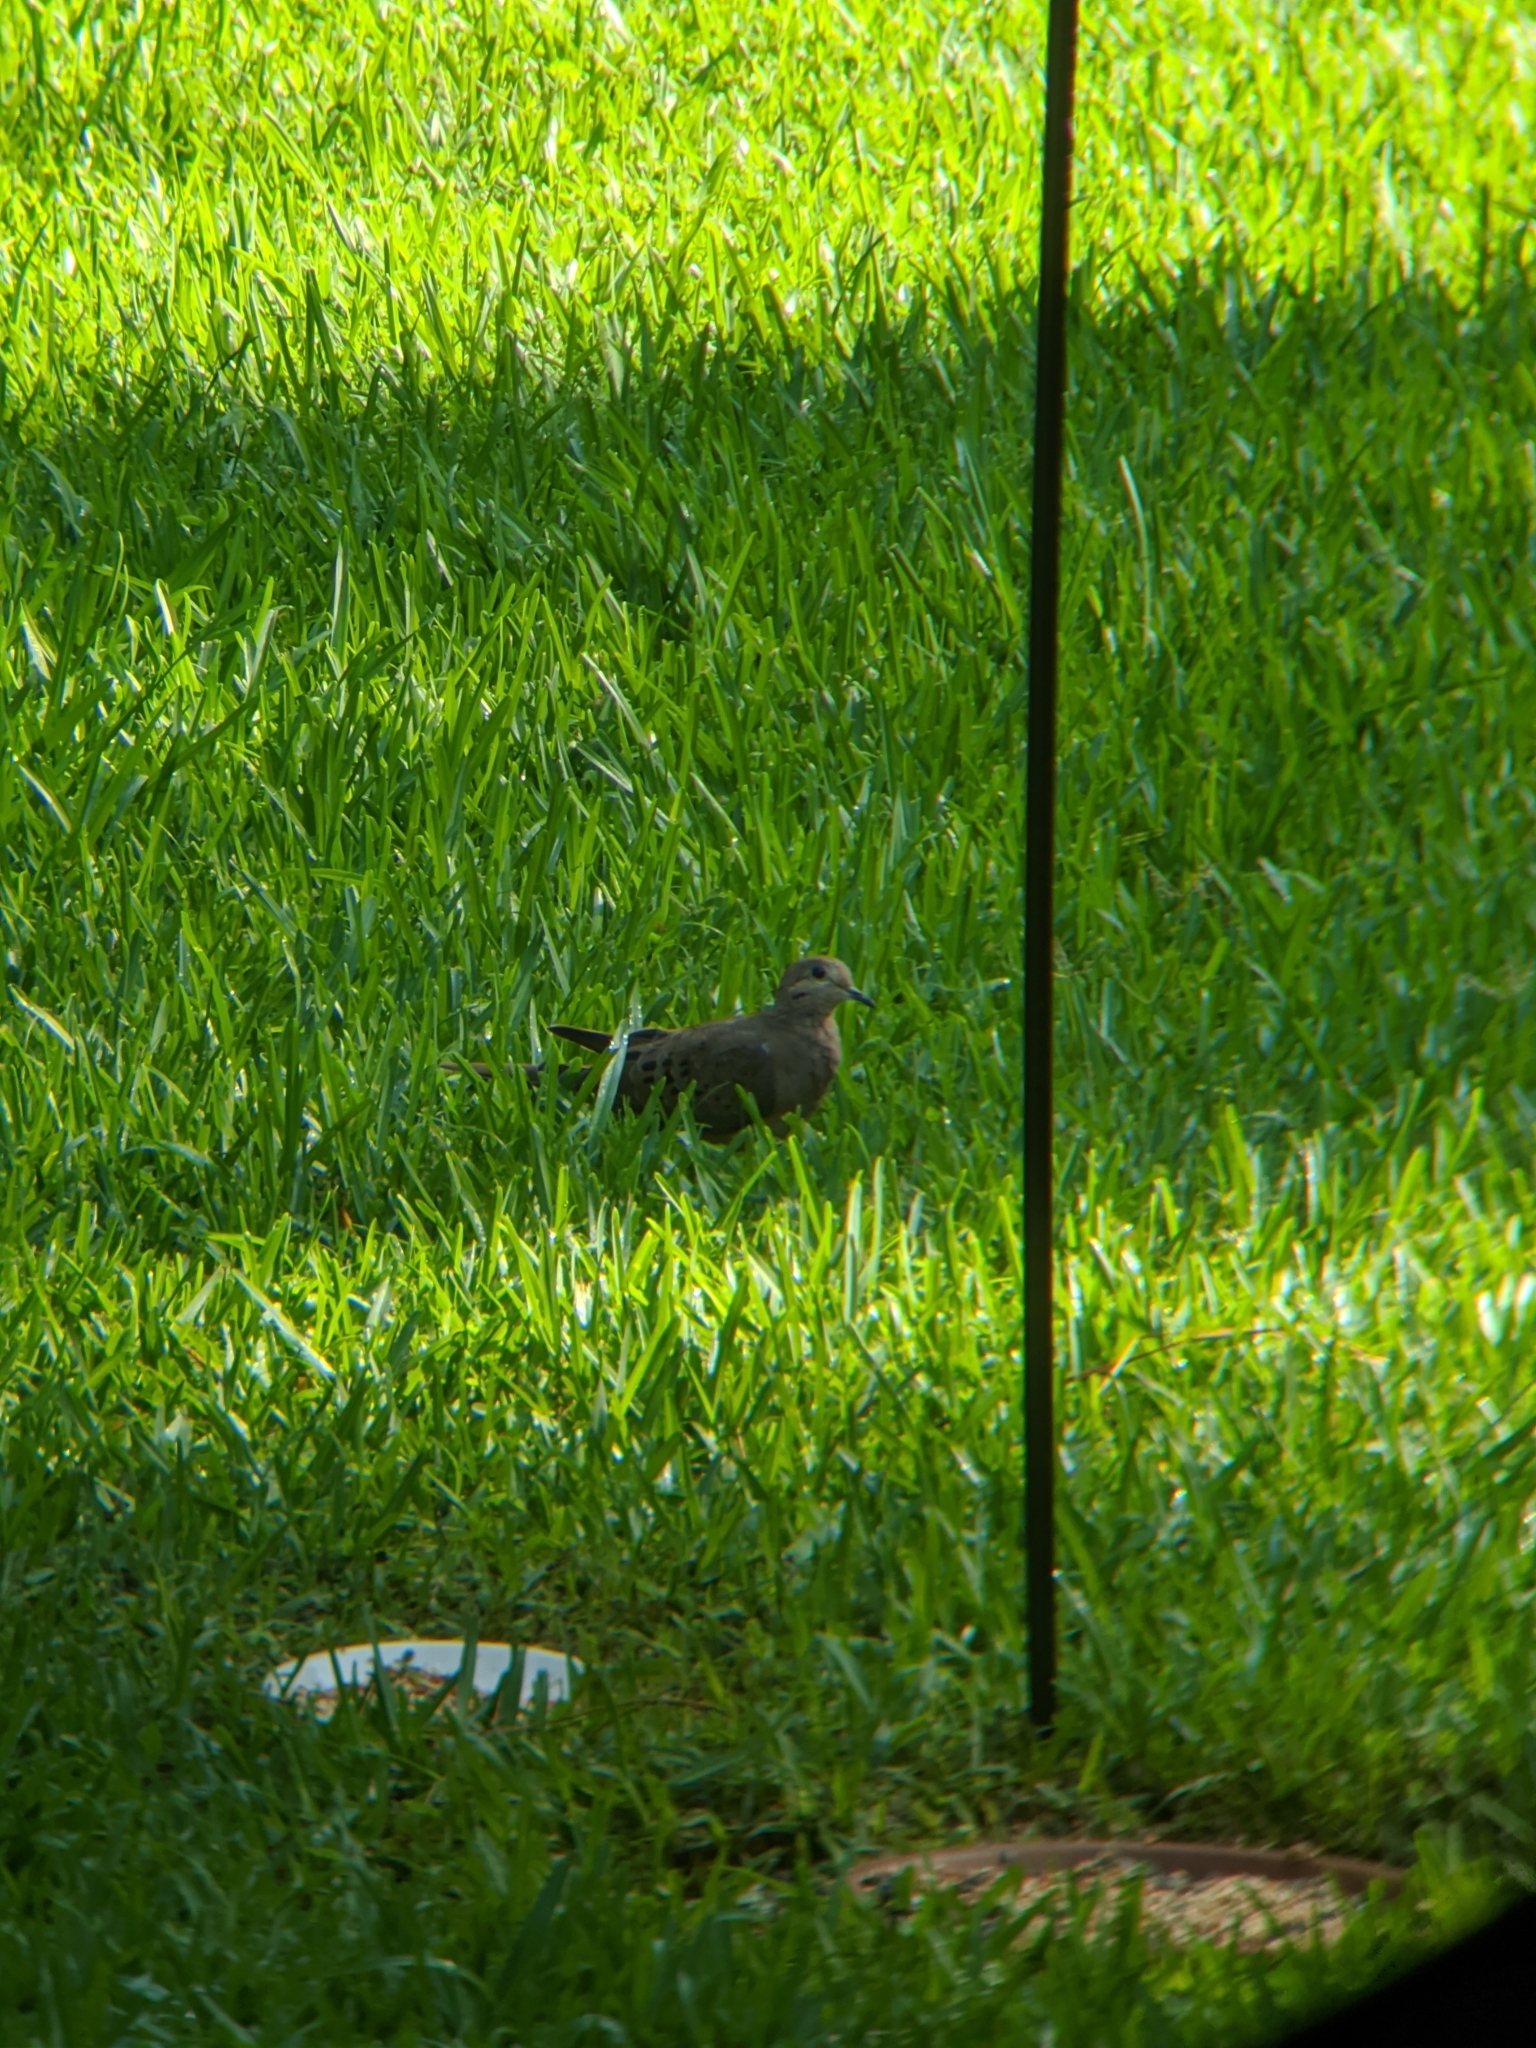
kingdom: Animalia
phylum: Chordata
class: Aves
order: Columbiformes
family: Columbidae
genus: Zenaida
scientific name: Zenaida macroura
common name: Mourning dove
